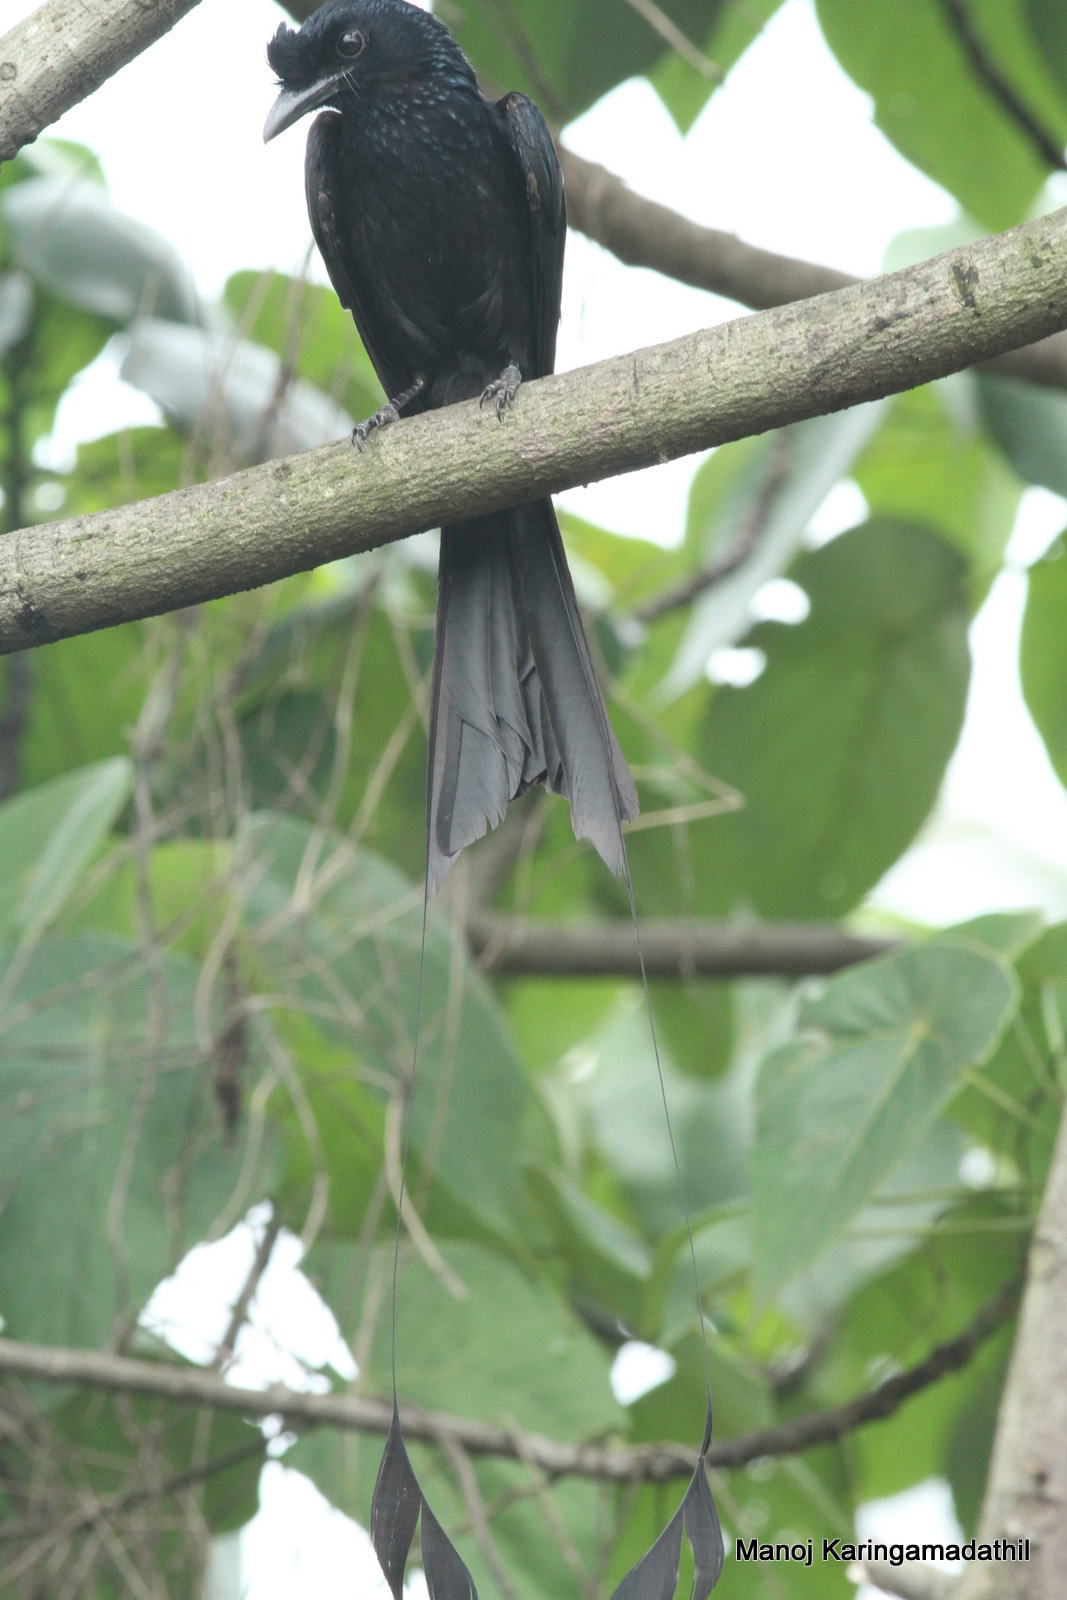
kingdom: Animalia
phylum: Chordata
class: Aves
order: Passeriformes
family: Dicruridae
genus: Dicrurus
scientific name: Dicrurus paradiseus
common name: Greater racket-tailed drongo
